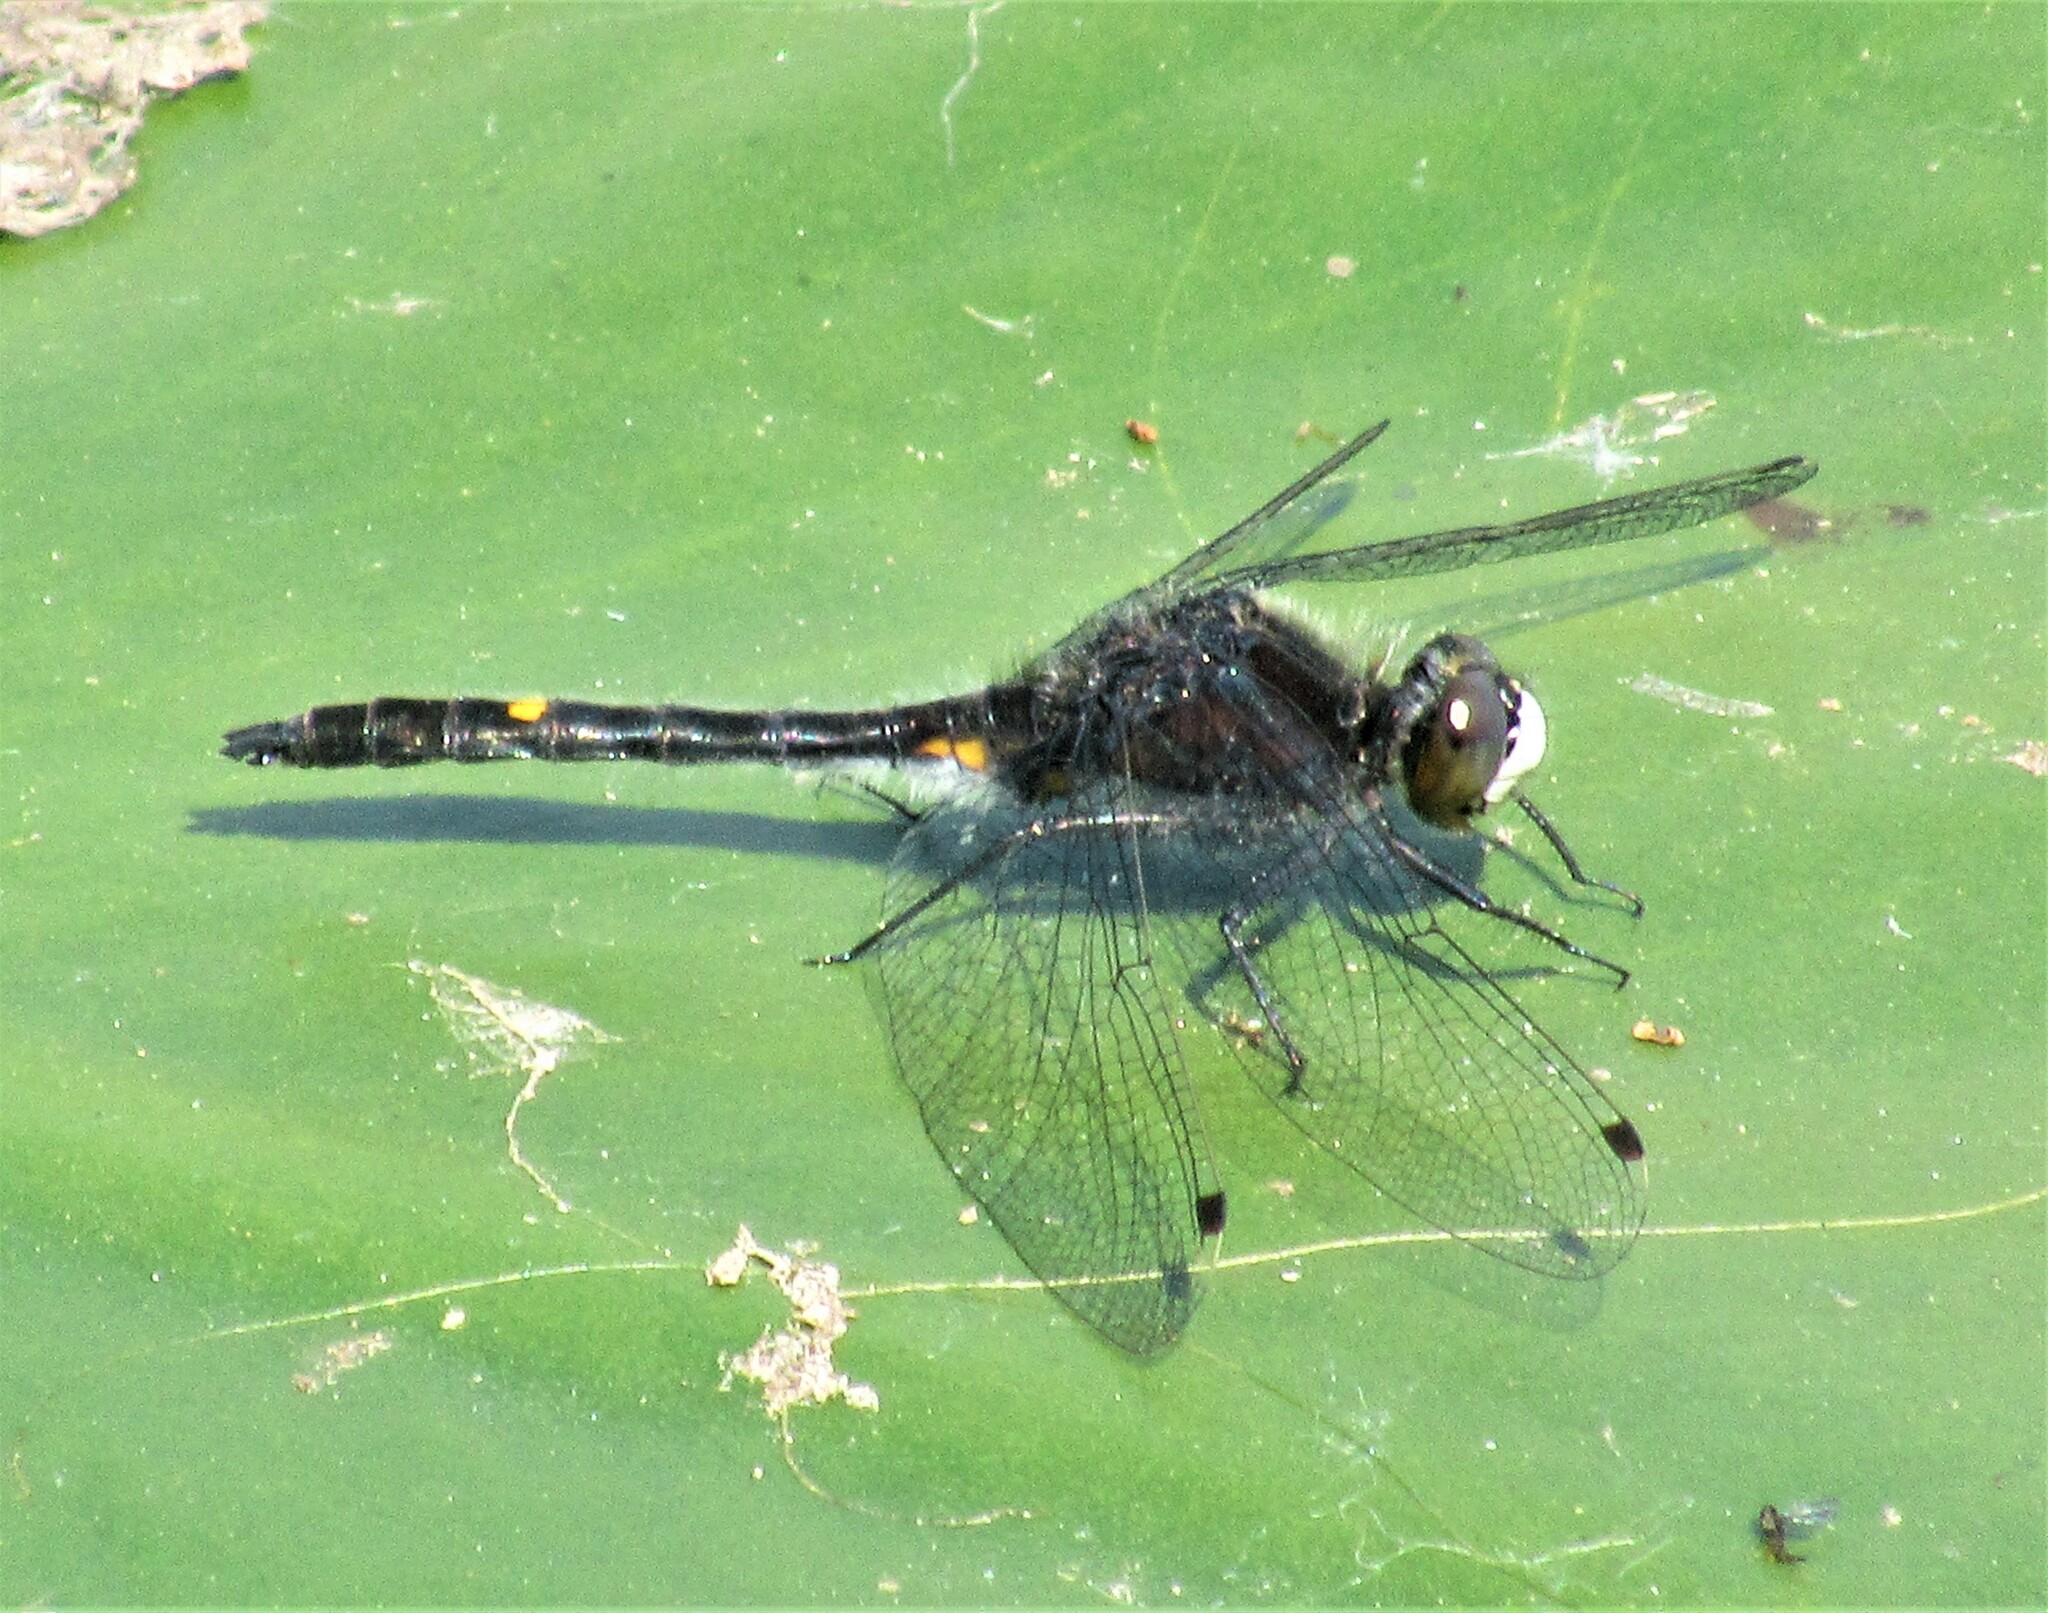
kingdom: Animalia
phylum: Arthropoda
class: Insecta
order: Odonata
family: Libellulidae
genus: Leucorrhinia
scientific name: Leucorrhinia intacta
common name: Dot-tailed whiteface
